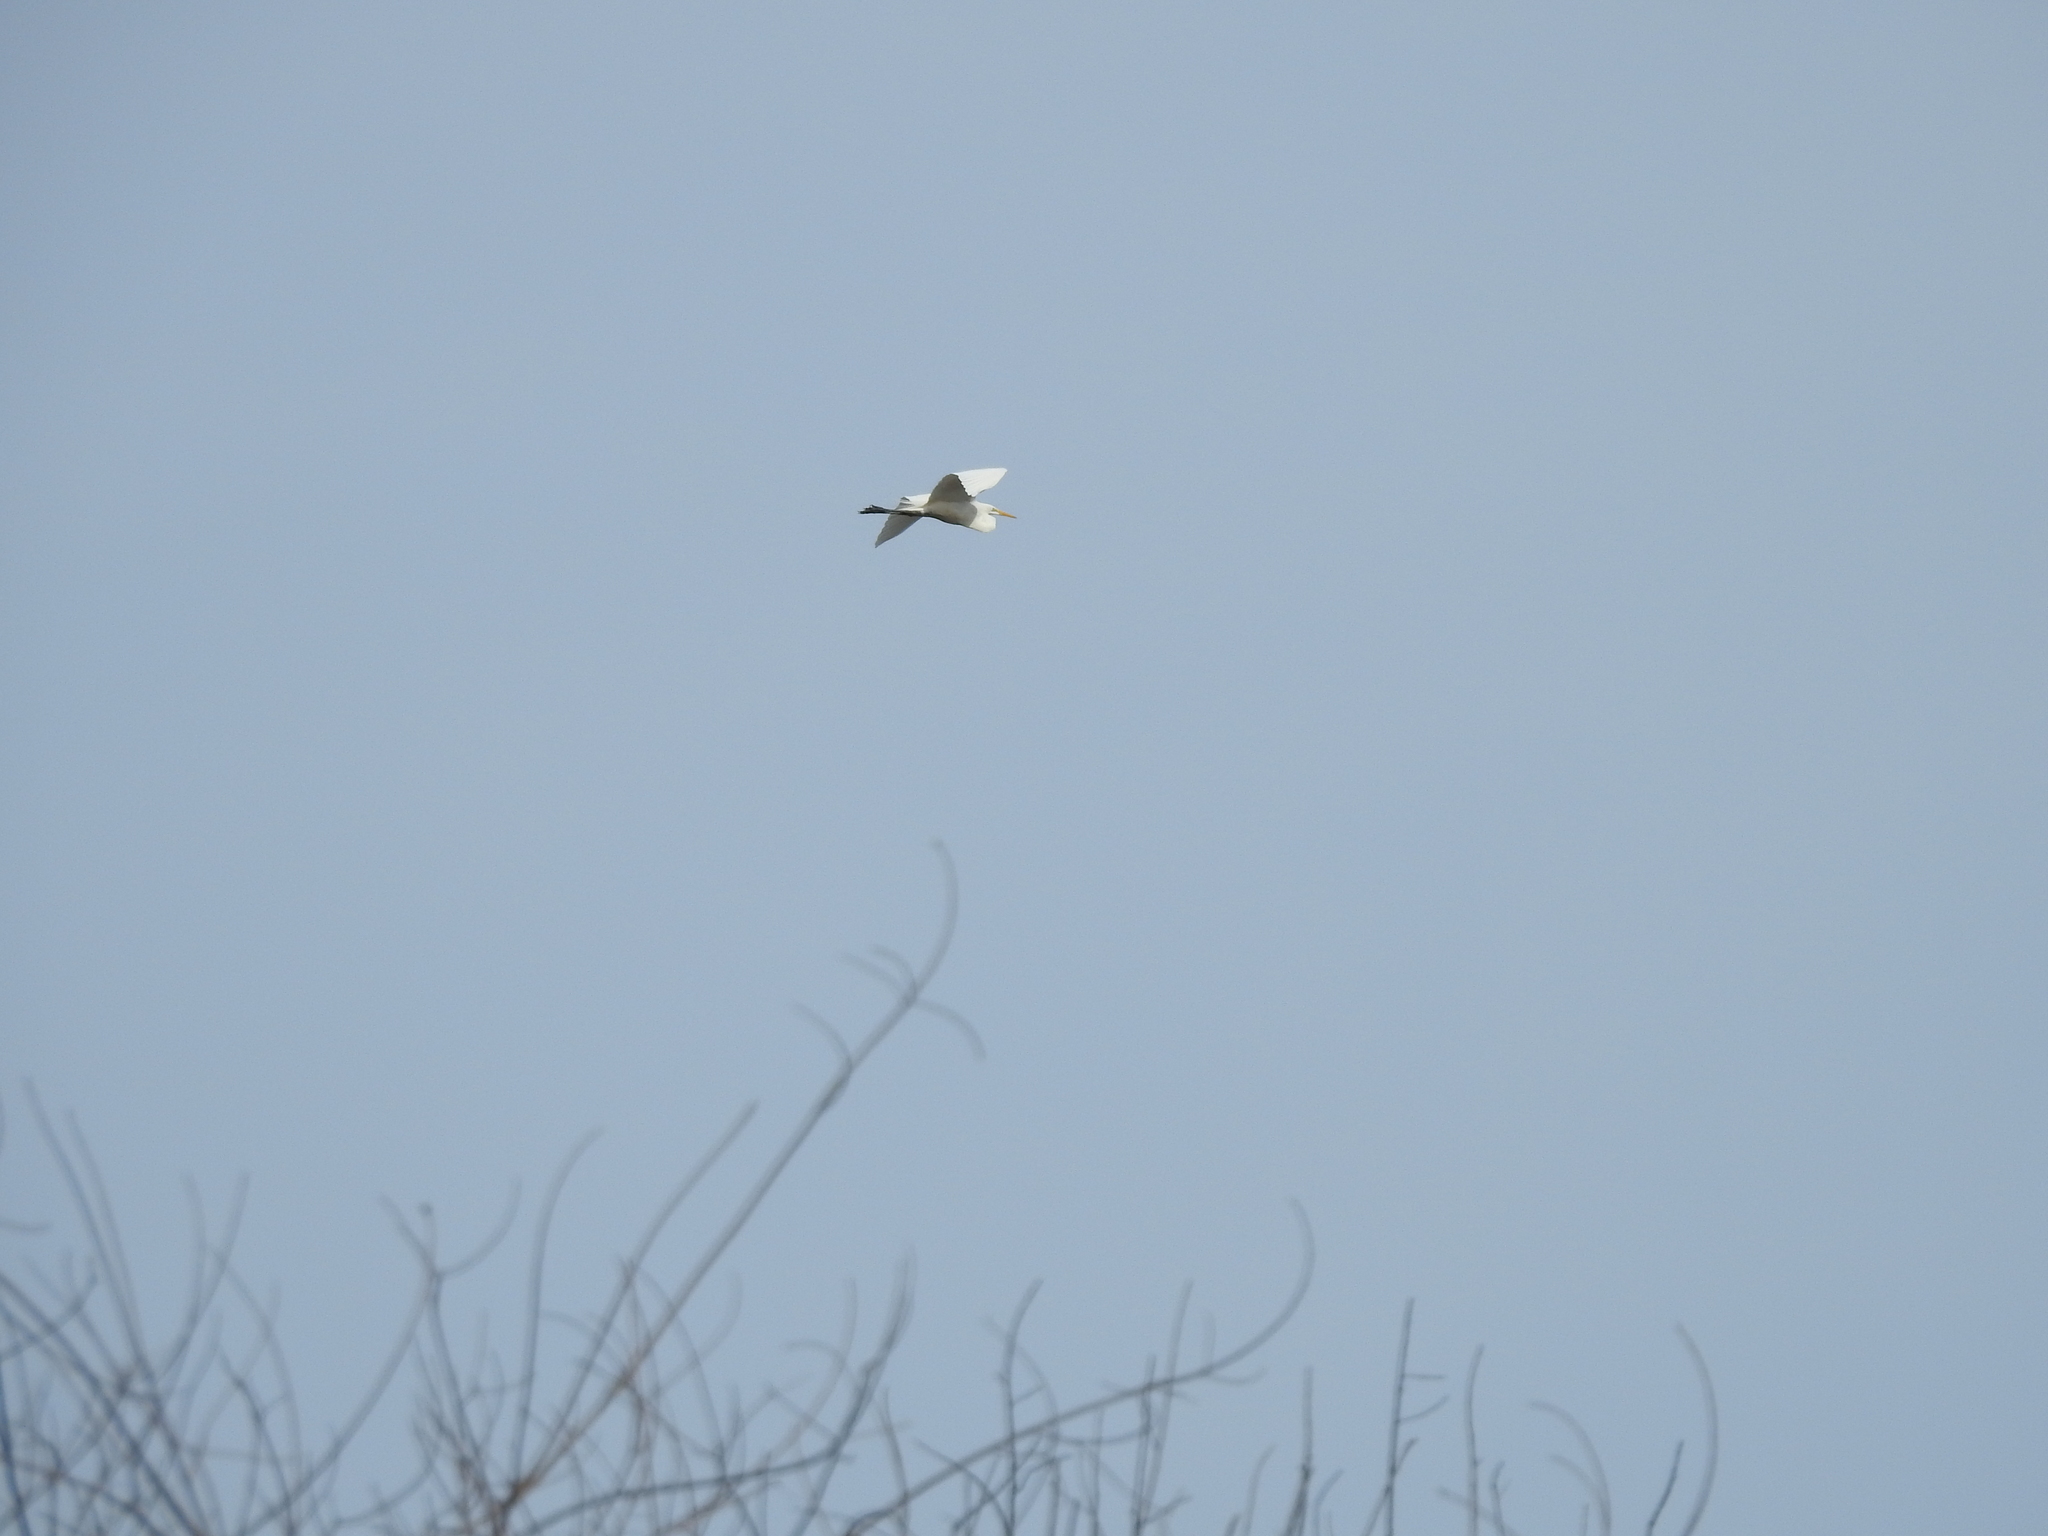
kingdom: Animalia
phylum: Chordata
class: Aves
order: Pelecaniformes
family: Ardeidae
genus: Ardea
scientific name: Ardea alba
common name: Great egret
